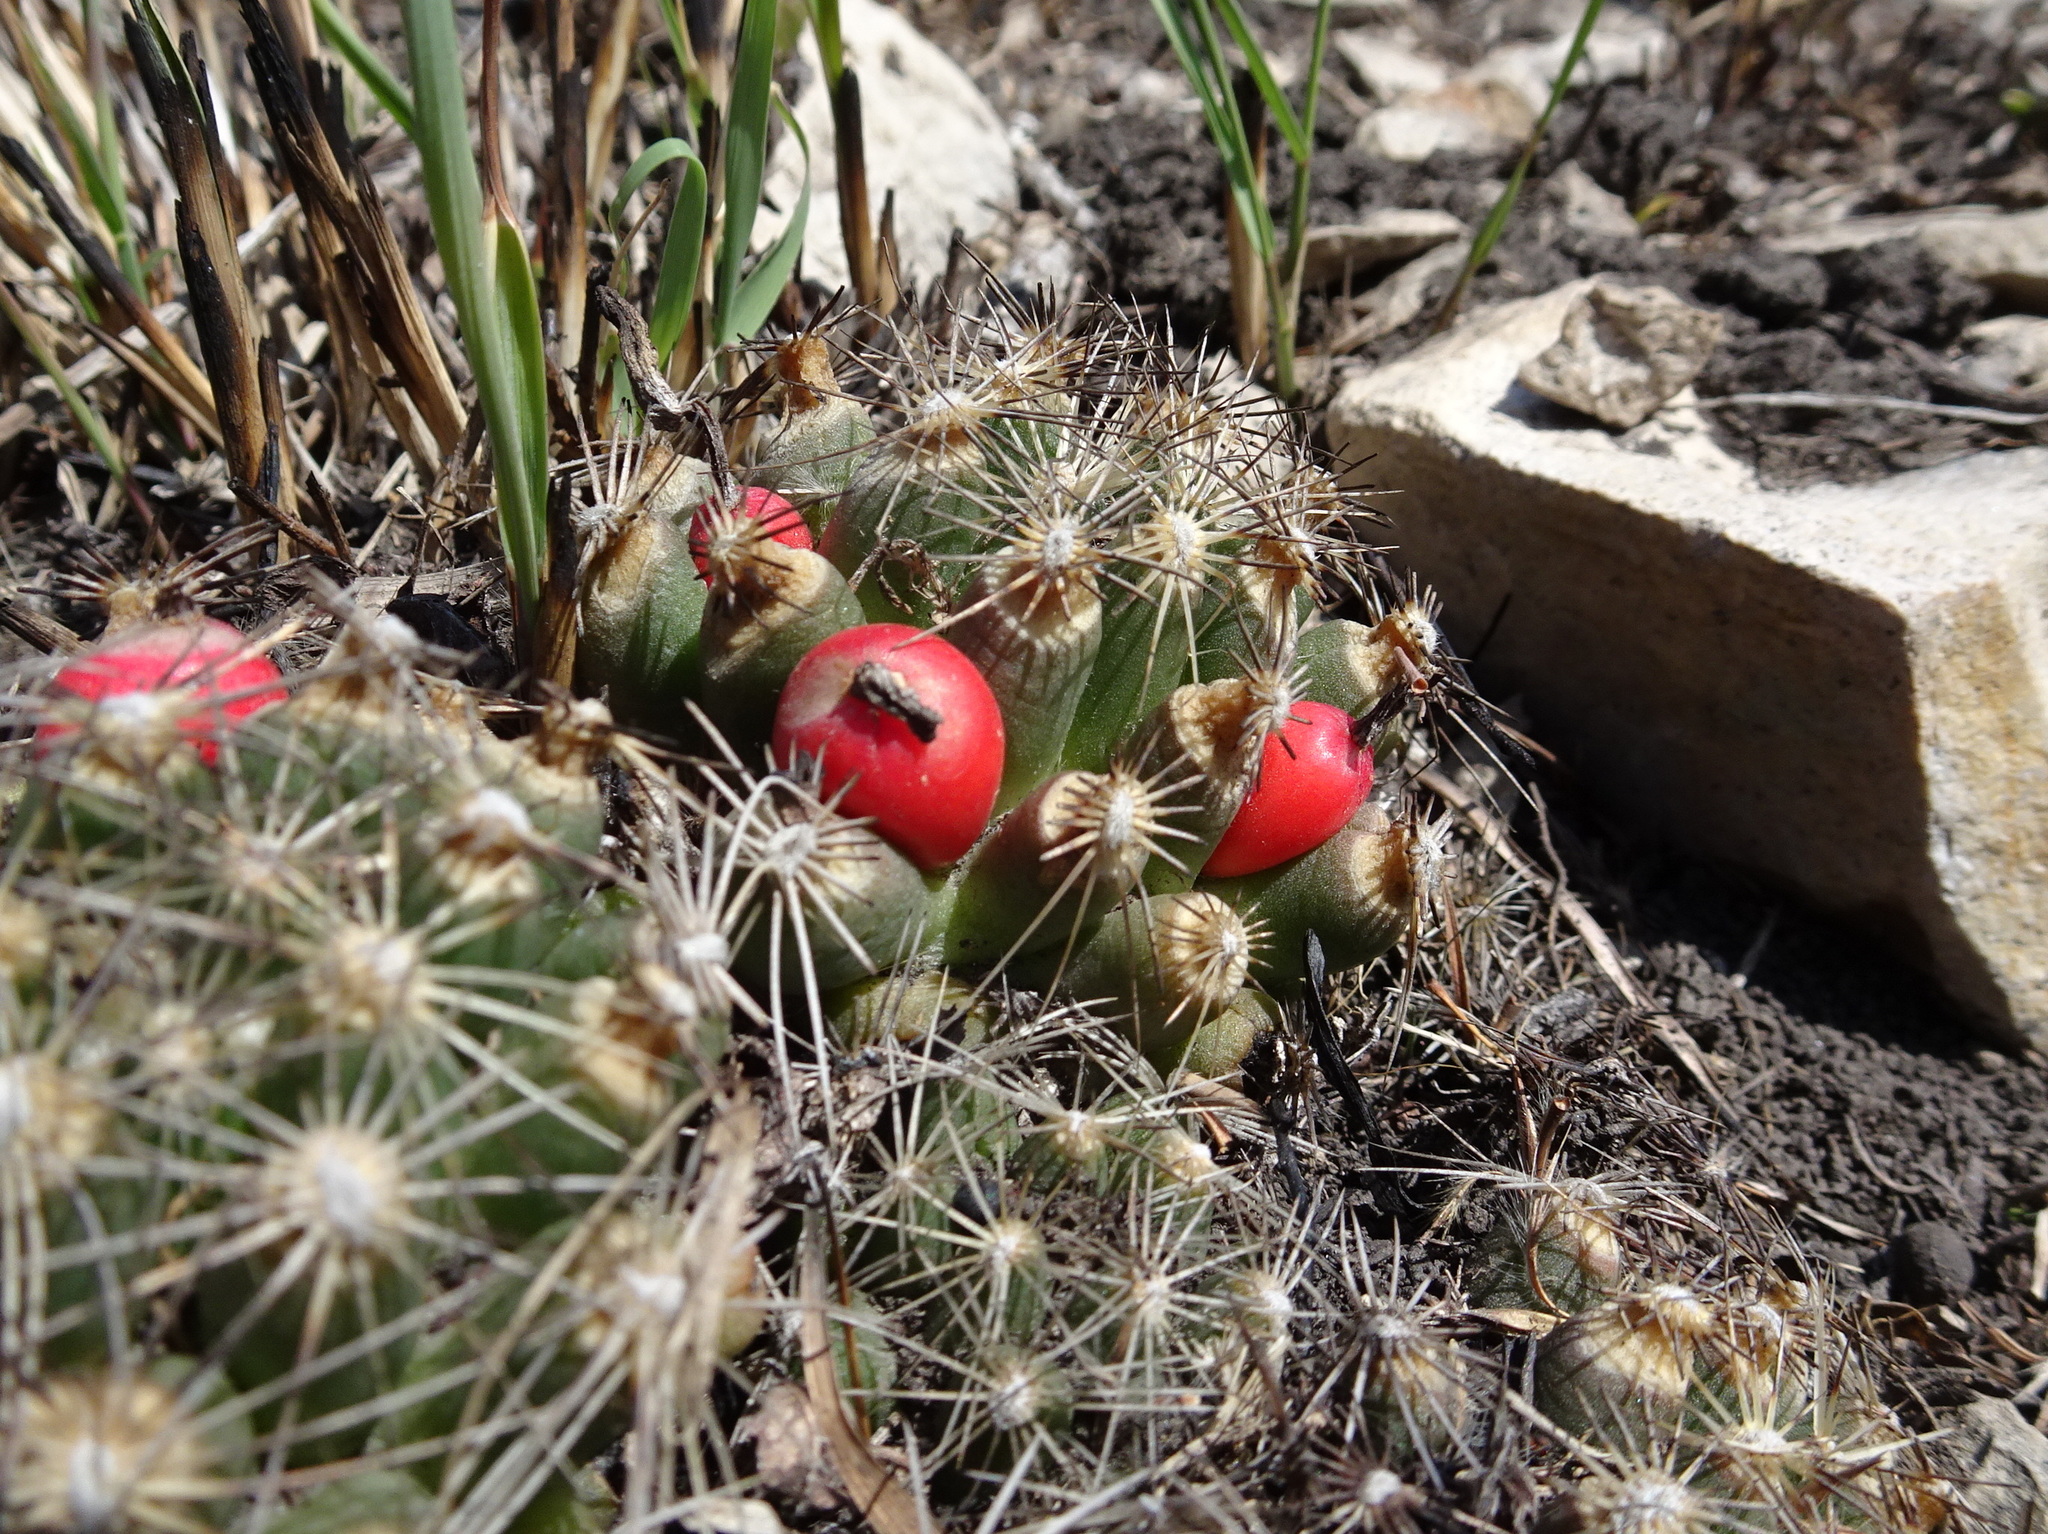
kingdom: Plantae
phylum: Tracheophyta
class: Magnoliopsida
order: Caryophyllales
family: Cactaceae
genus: Pelecyphora
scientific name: Pelecyphora missouriensis
